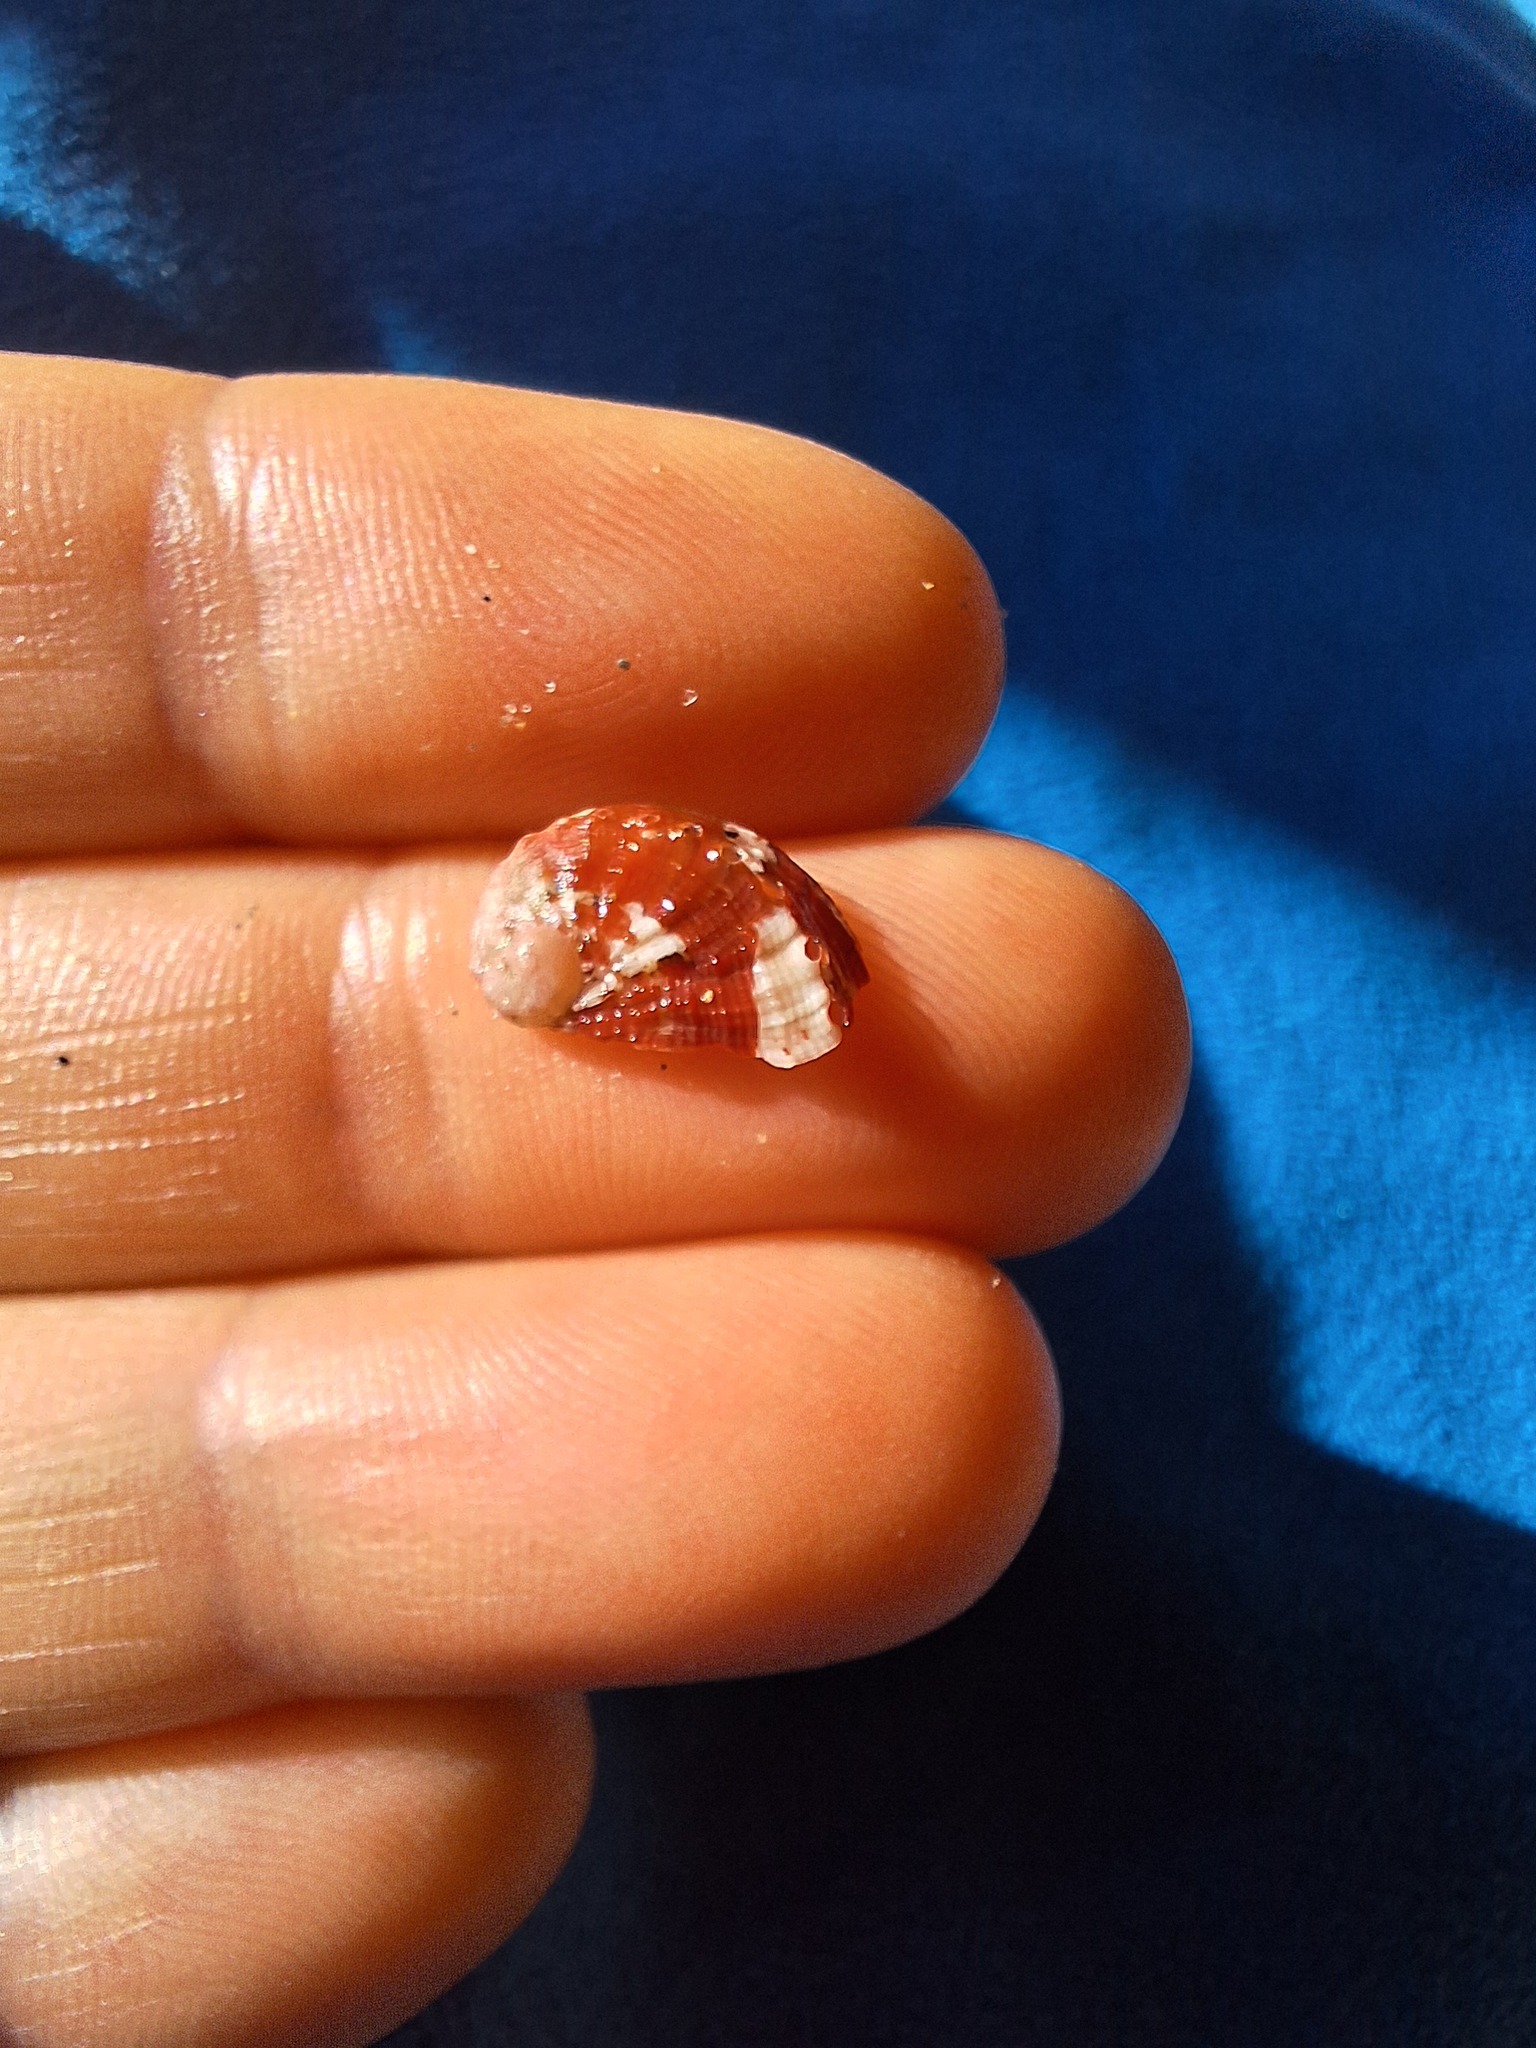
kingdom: Animalia
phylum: Mollusca
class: Gastropoda
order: Lepetellida
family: Haliotidae
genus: Haliotis
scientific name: Haliotis tuberculata
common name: Green ormer
